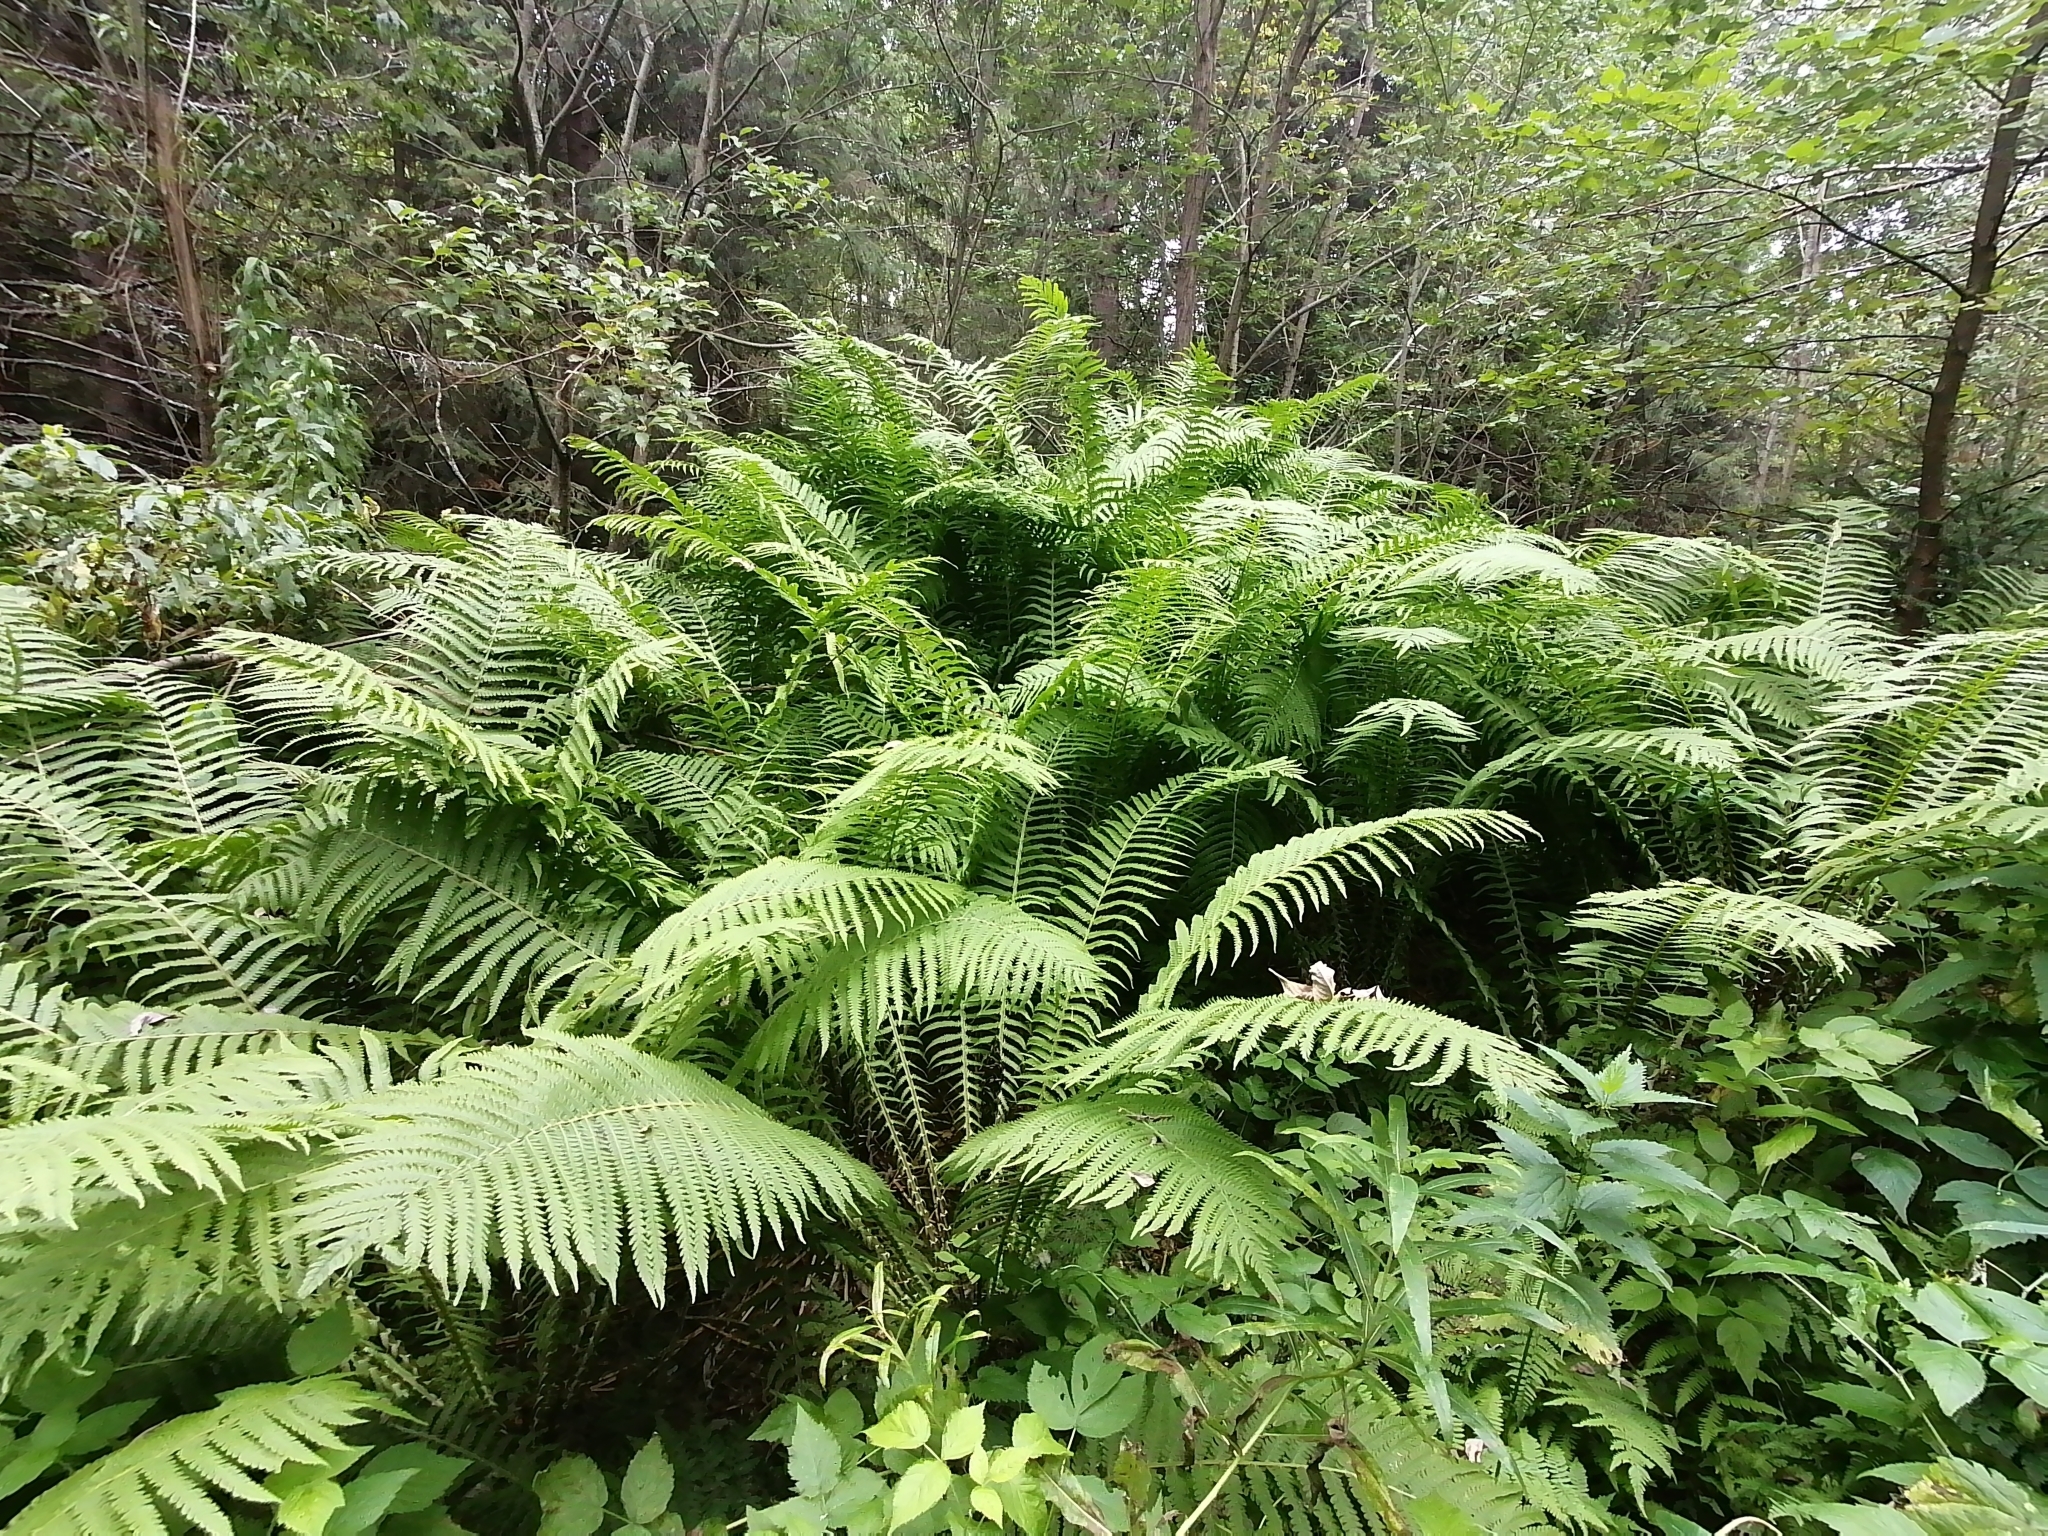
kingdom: Plantae
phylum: Tracheophyta
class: Polypodiopsida
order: Polypodiales
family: Onocleaceae
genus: Matteuccia
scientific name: Matteuccia struthiopteris
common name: Ostrich fern
